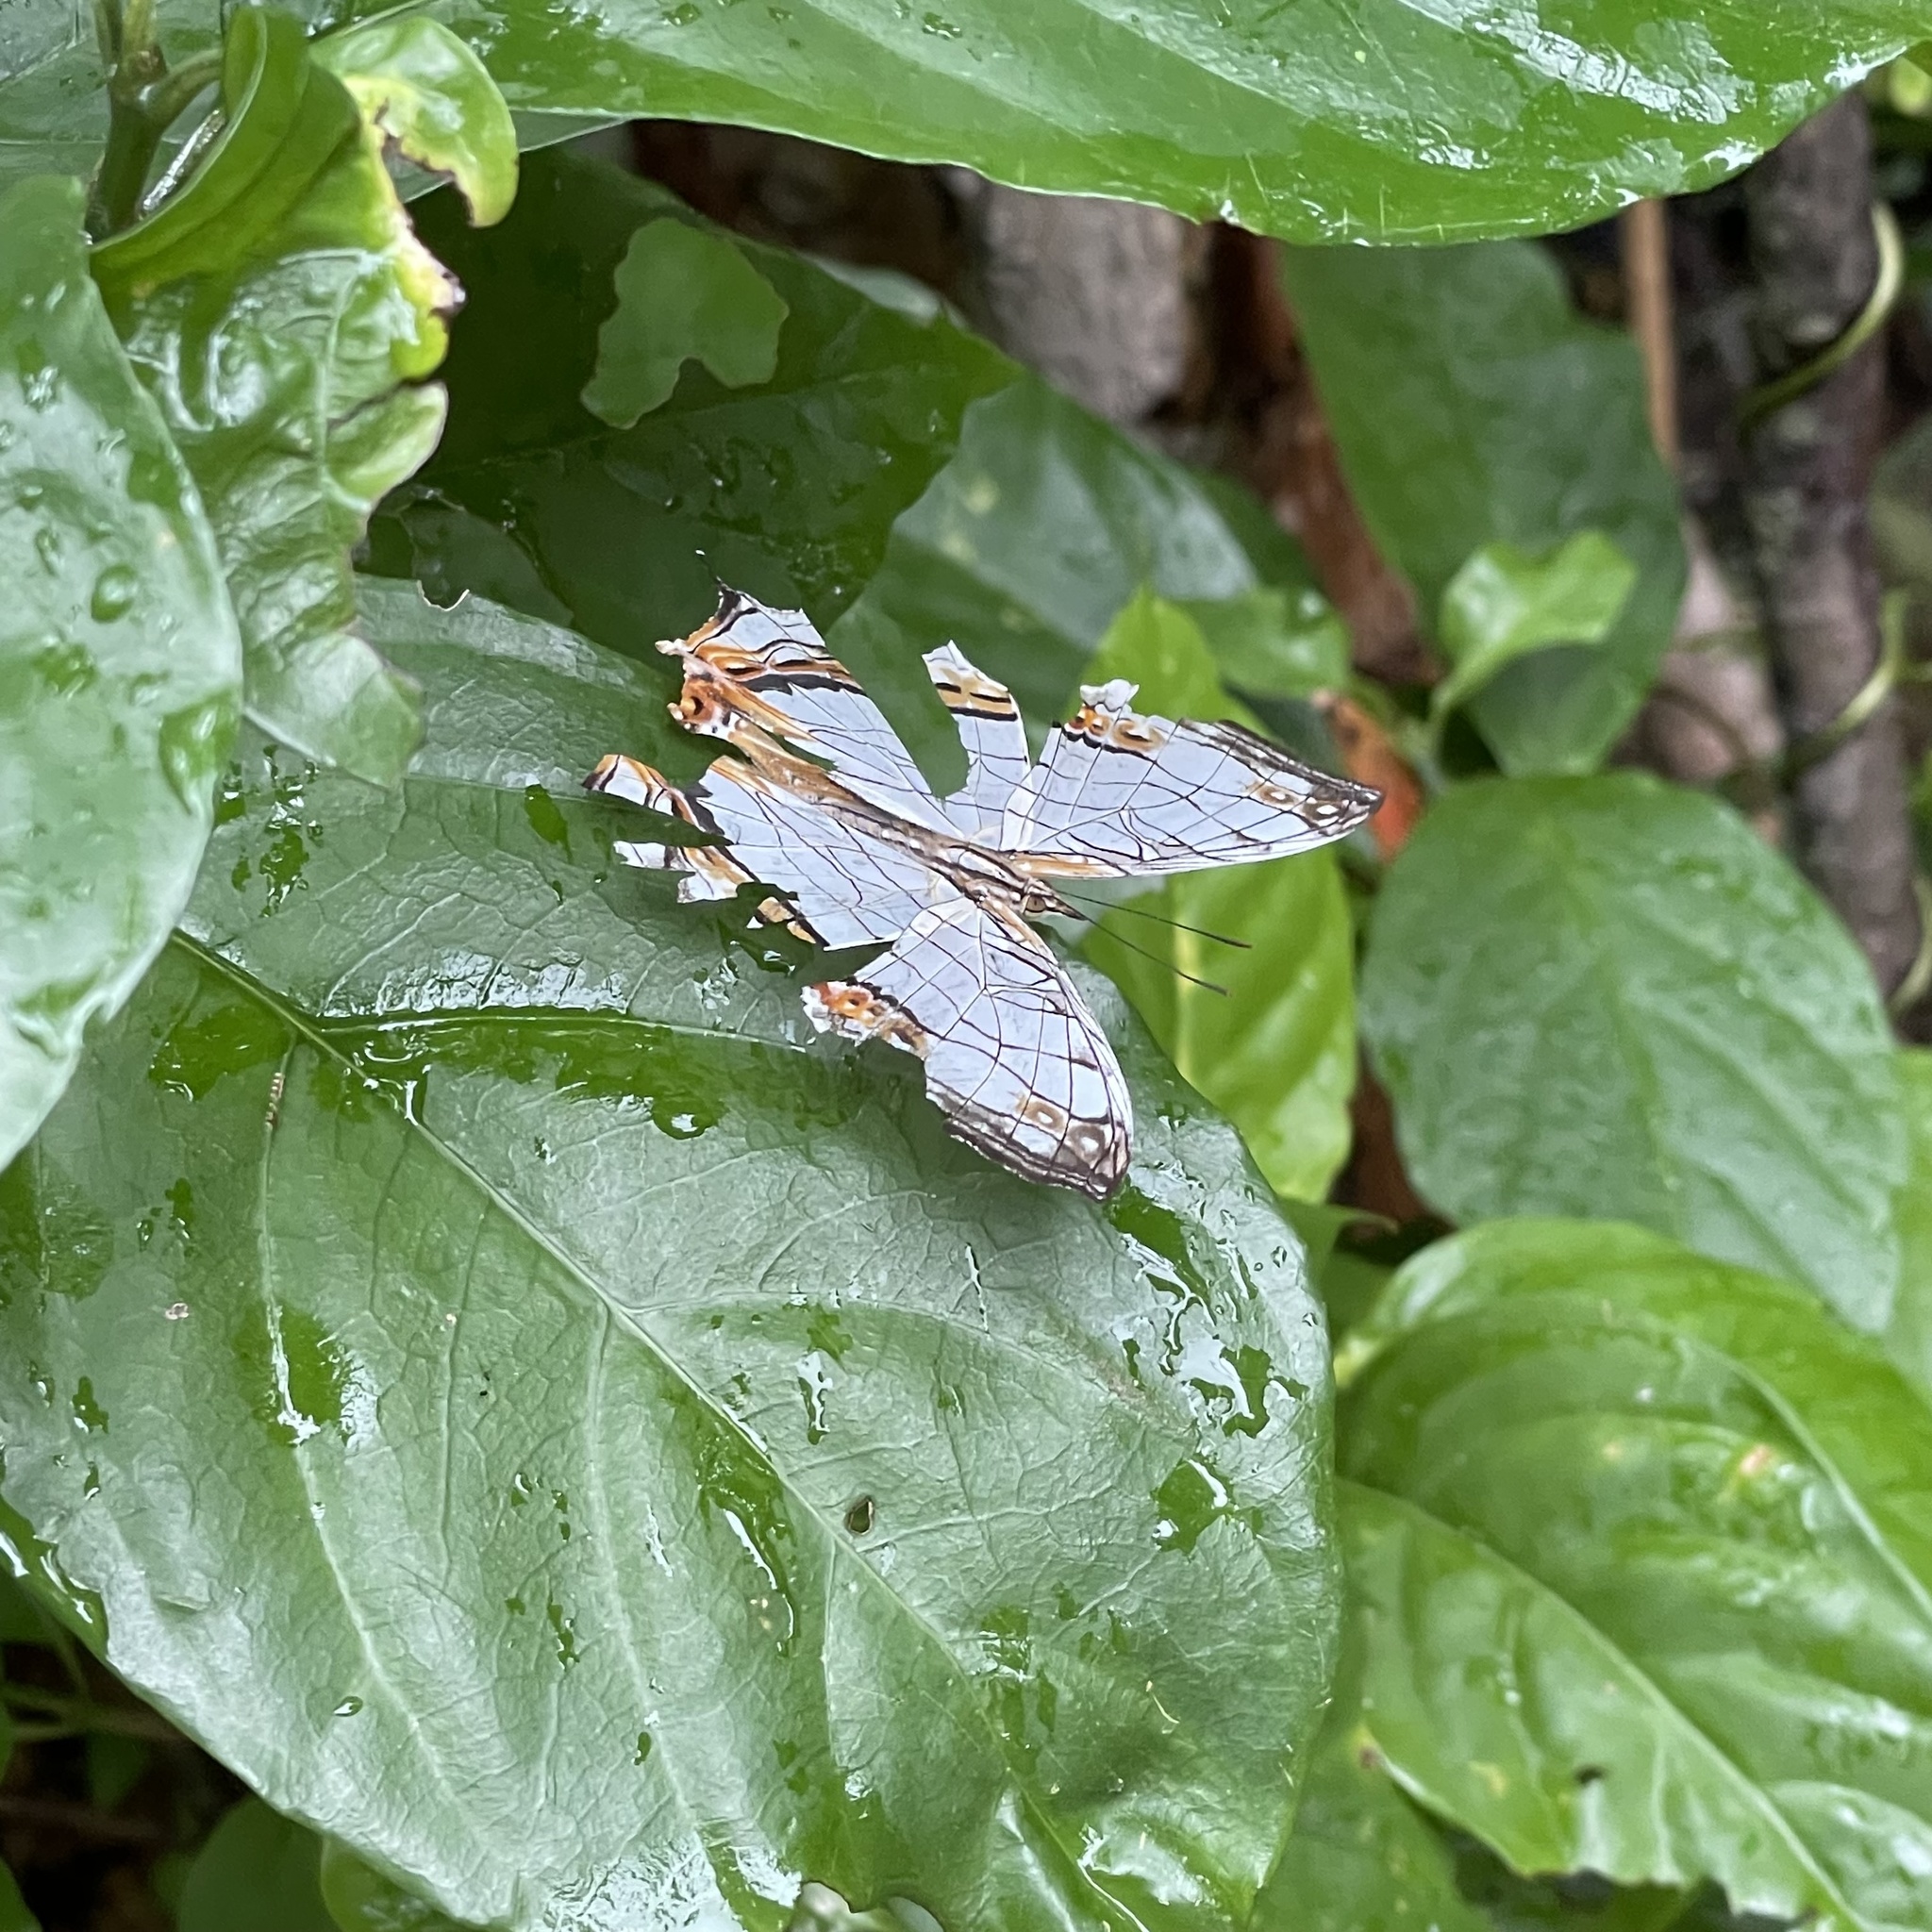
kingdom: Animalia
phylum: Arthropoda
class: Insecta
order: Lepidoptera
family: Nymphalidae
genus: Cyrestis
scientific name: Cyrestis thyodamas
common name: Common mapwing
